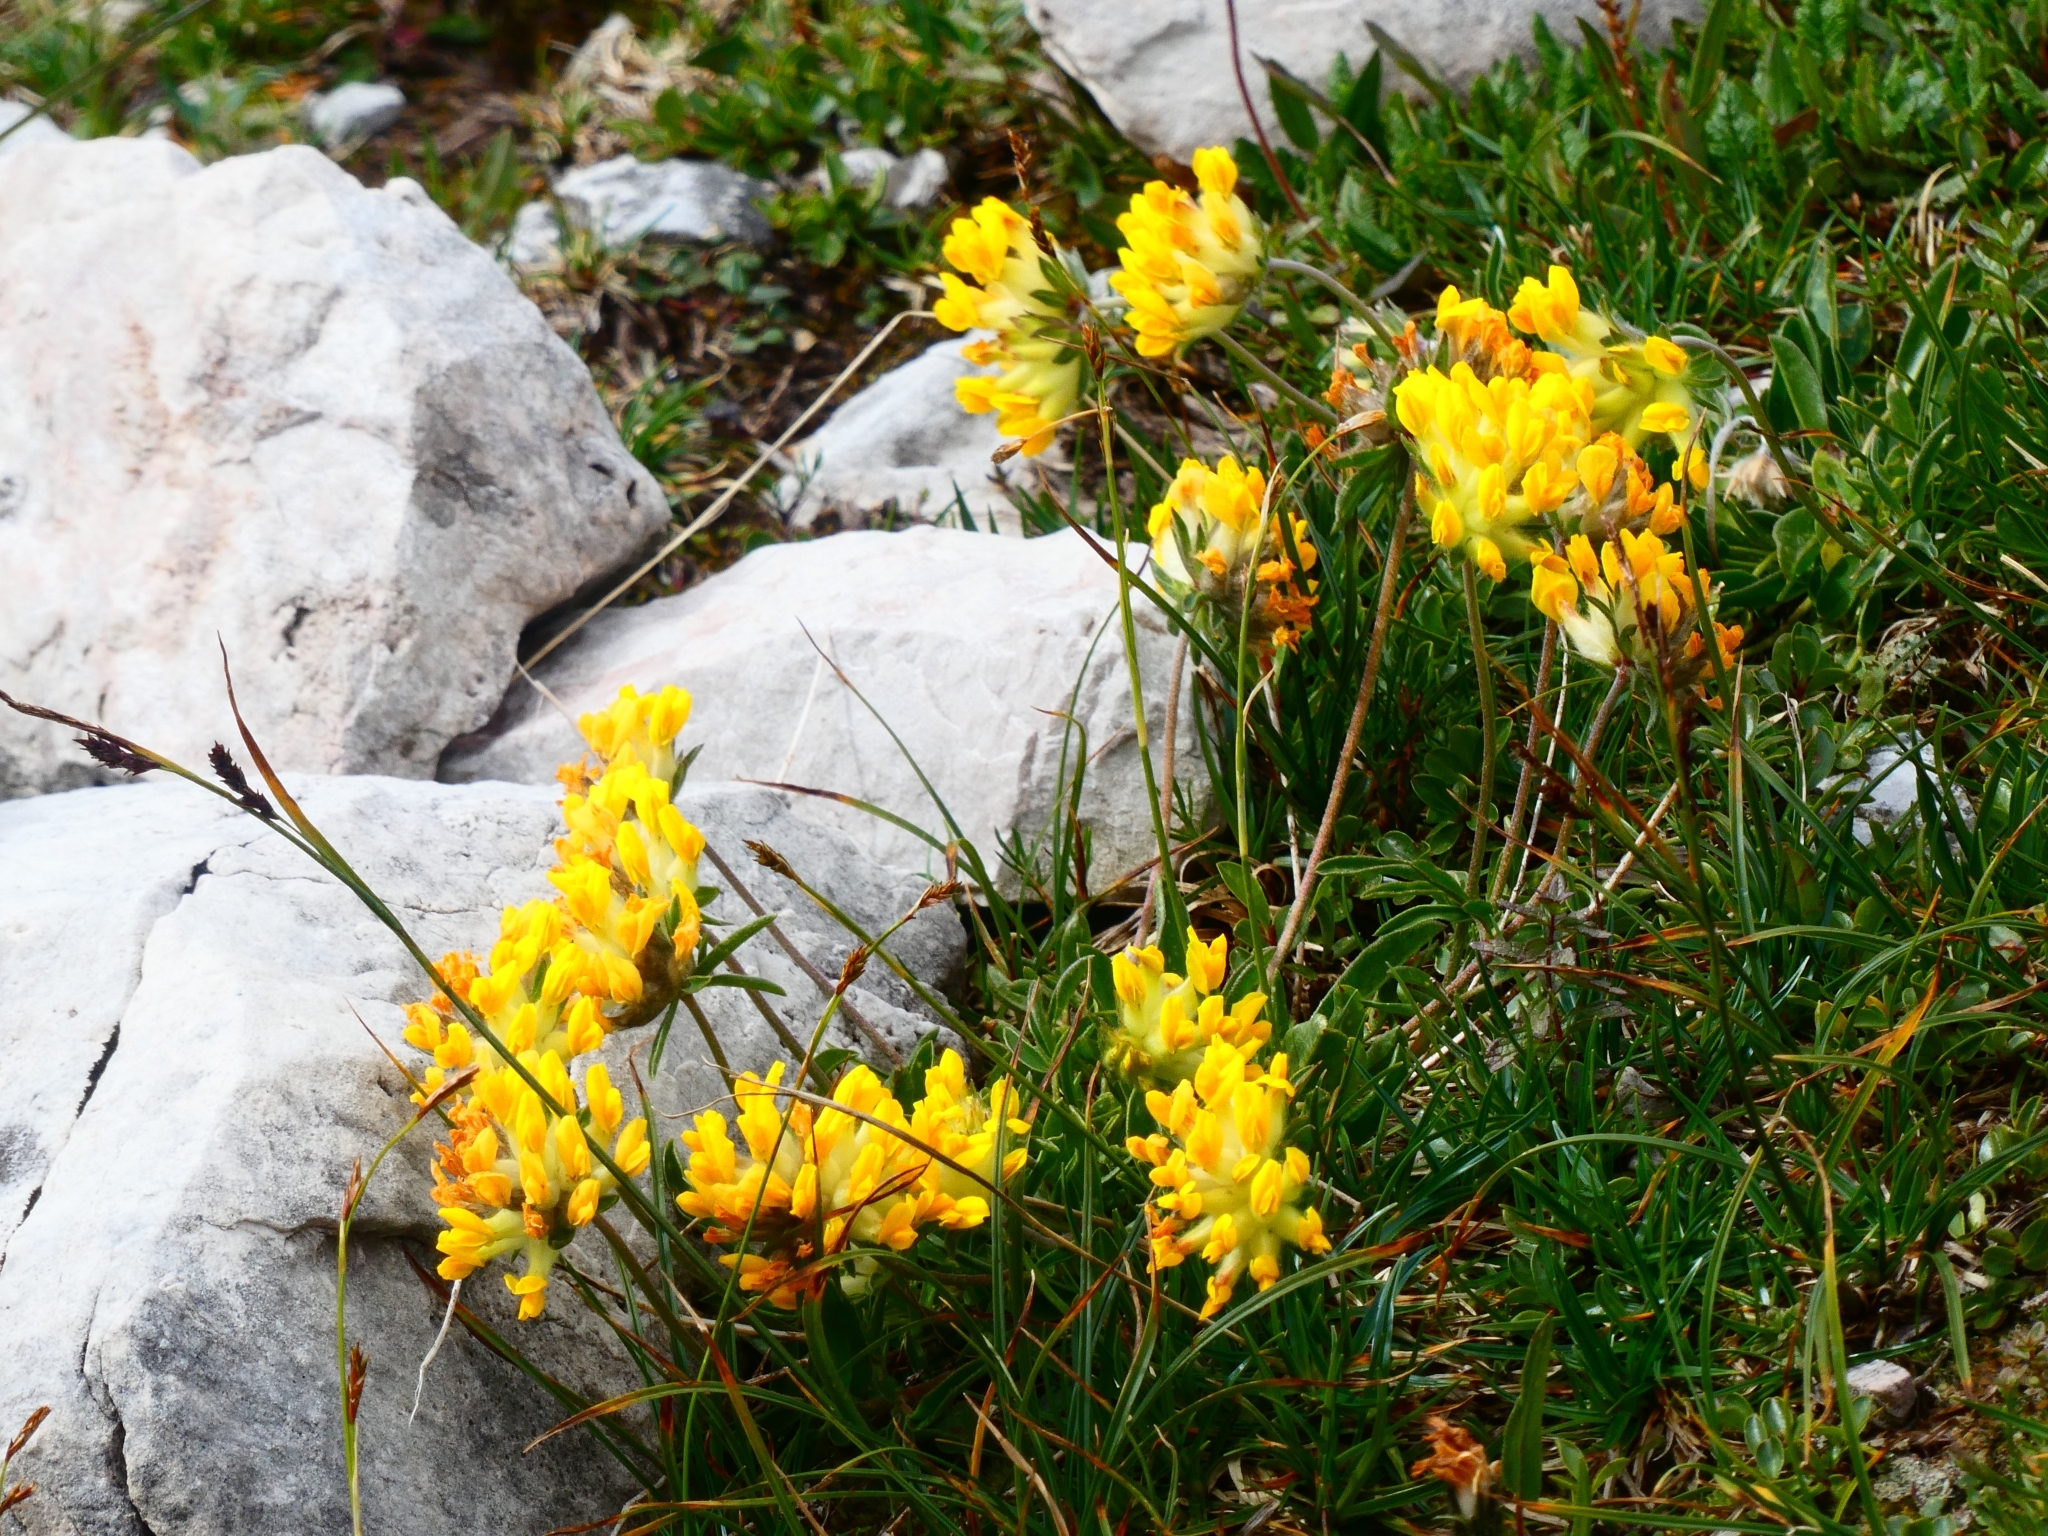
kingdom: Plantae
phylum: Tracheophyta
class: Magnoliopsida
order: Fabales
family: Fabaceae
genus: Anthyllis
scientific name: Anthyllis vulneraria
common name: Kidney vetch
